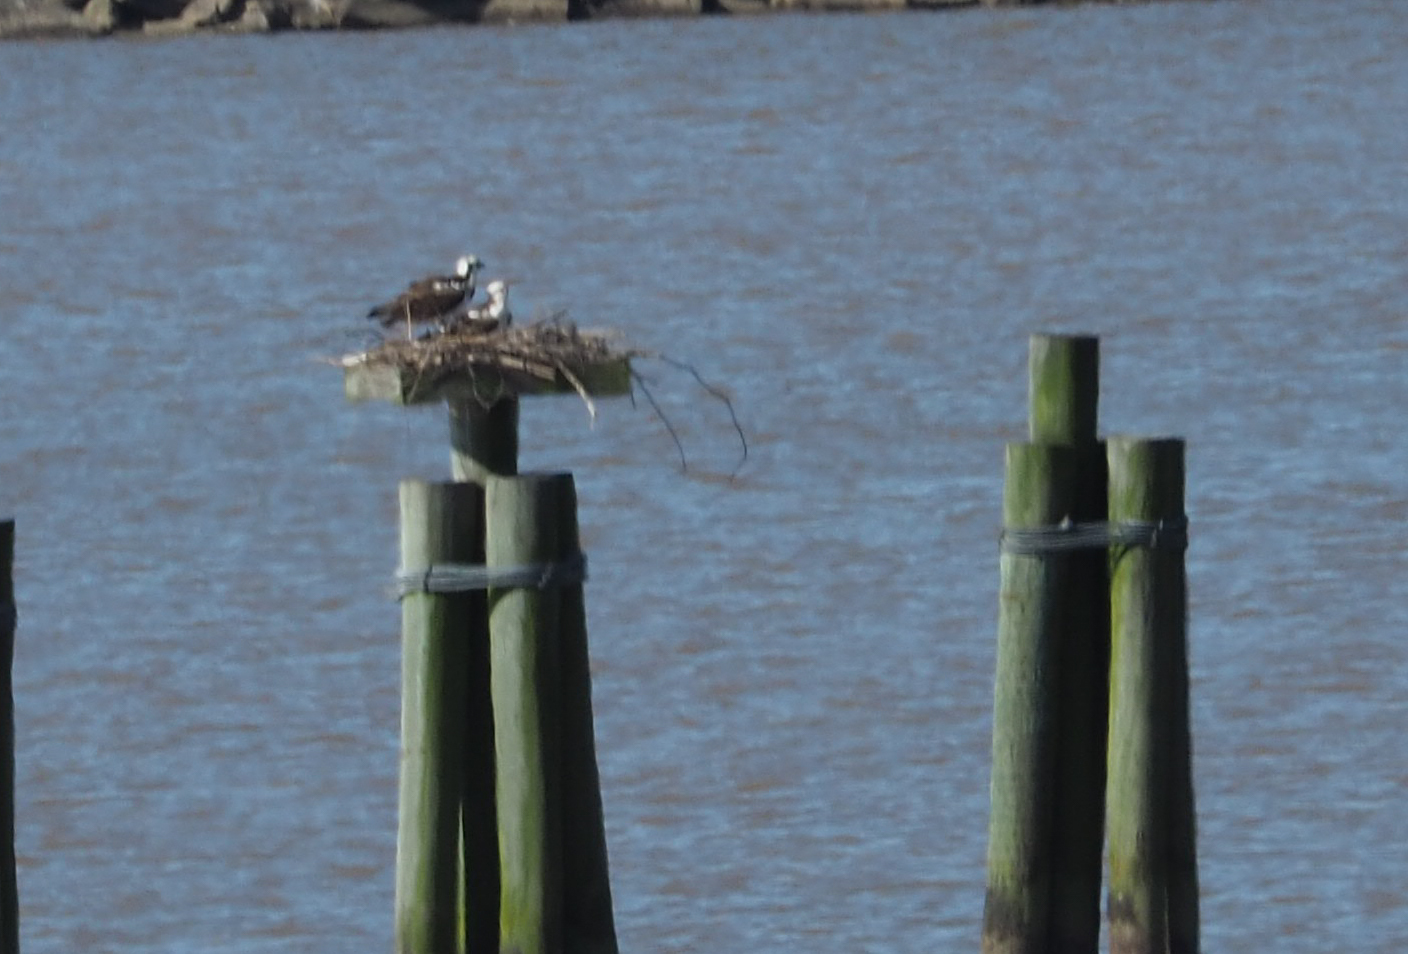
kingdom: Animalia
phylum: Chordata
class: Aves
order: Accipitriformes
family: Pandionidae
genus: Pandion
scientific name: Pandion haliaetus
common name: Osprey
